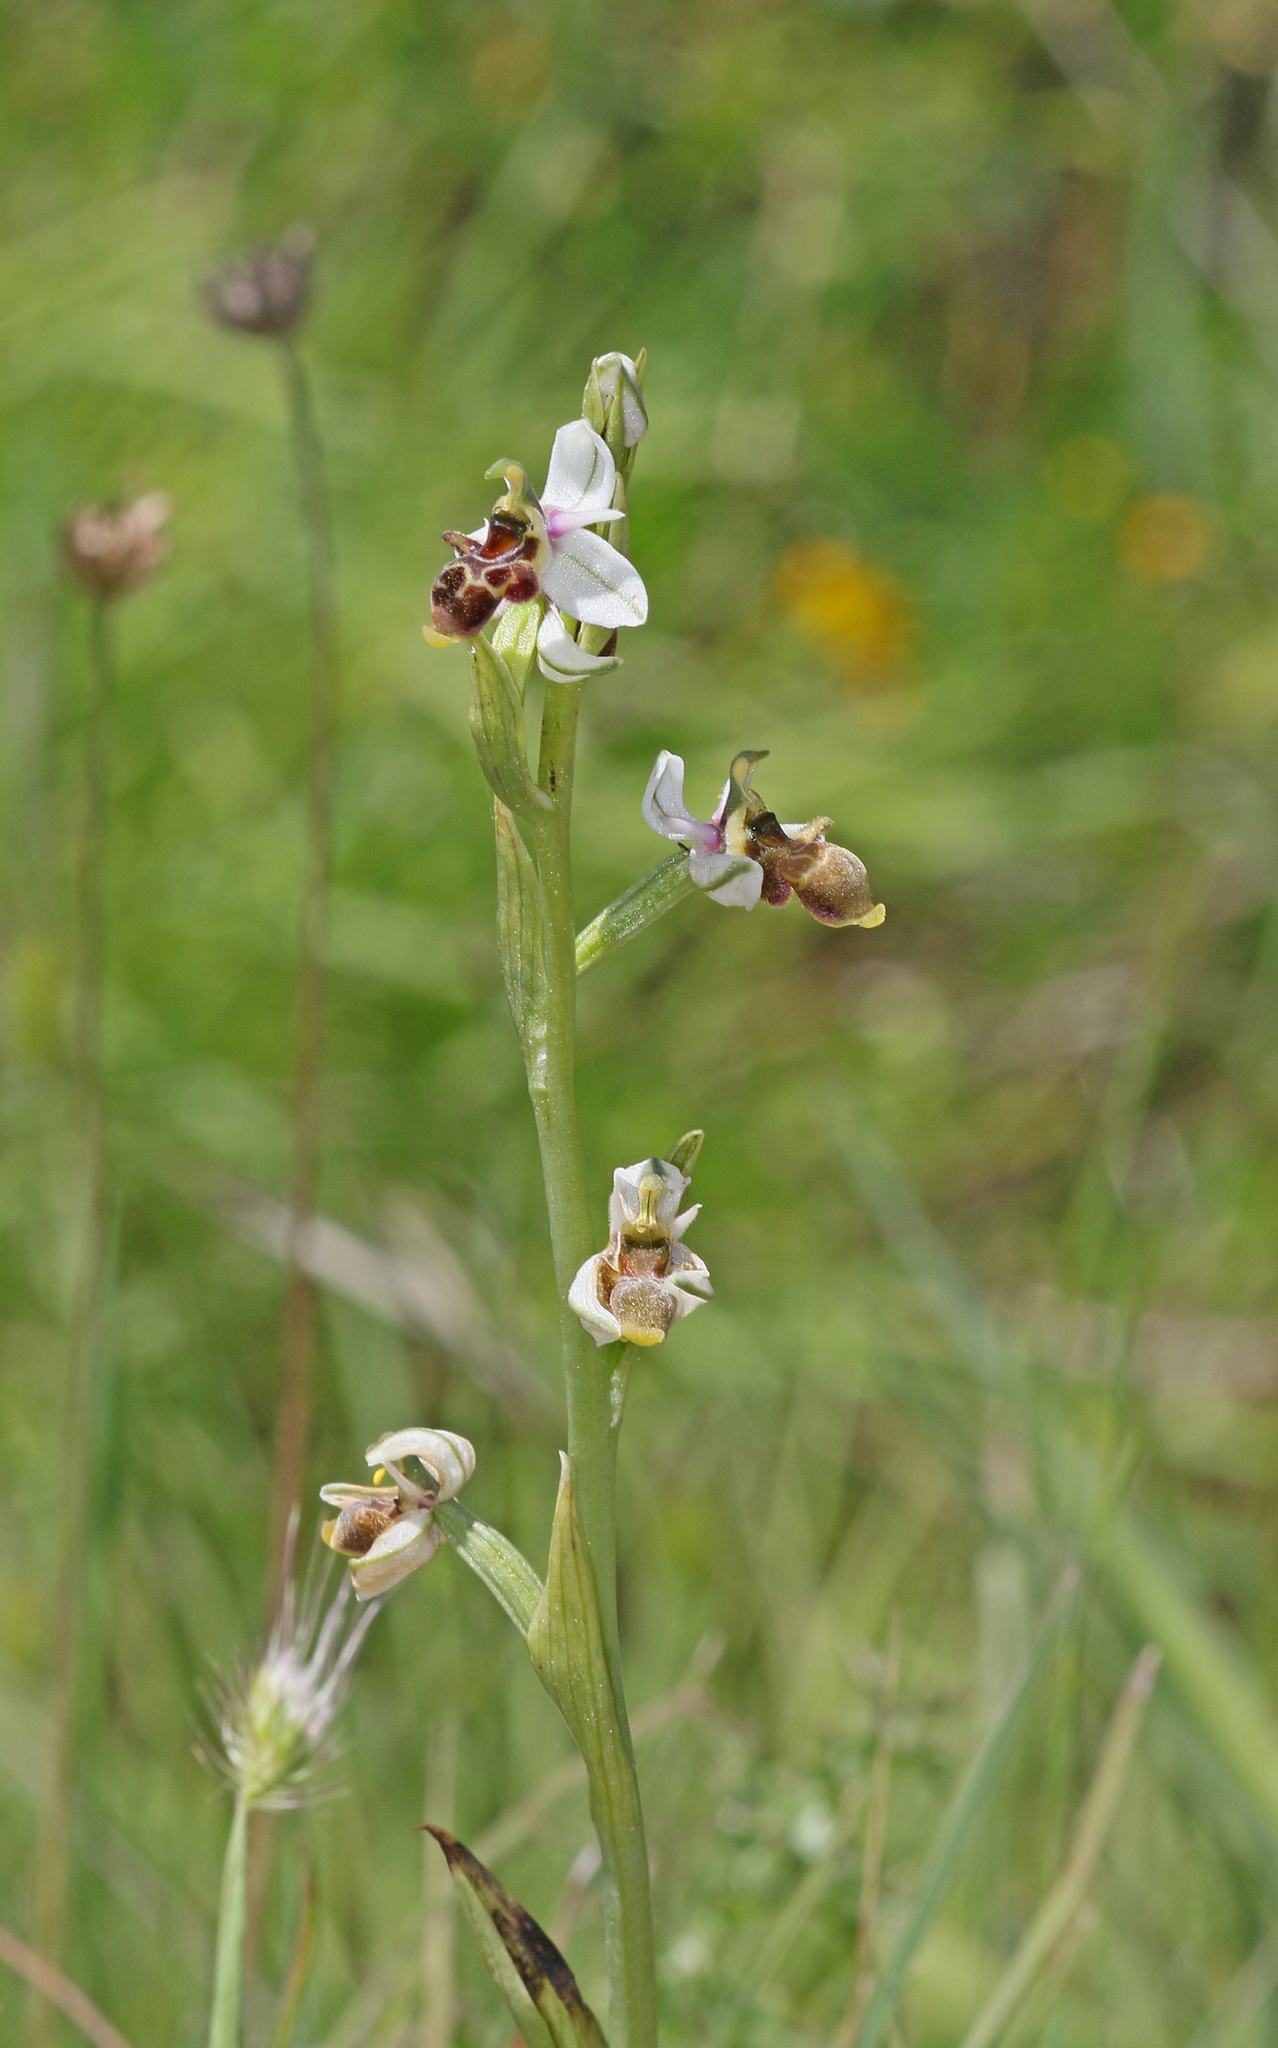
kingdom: Plantae
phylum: Tracheophyta
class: Liliopsida
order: Asparagales
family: Orchidaceae
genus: Ophrys
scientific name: Ophrys scolopax
